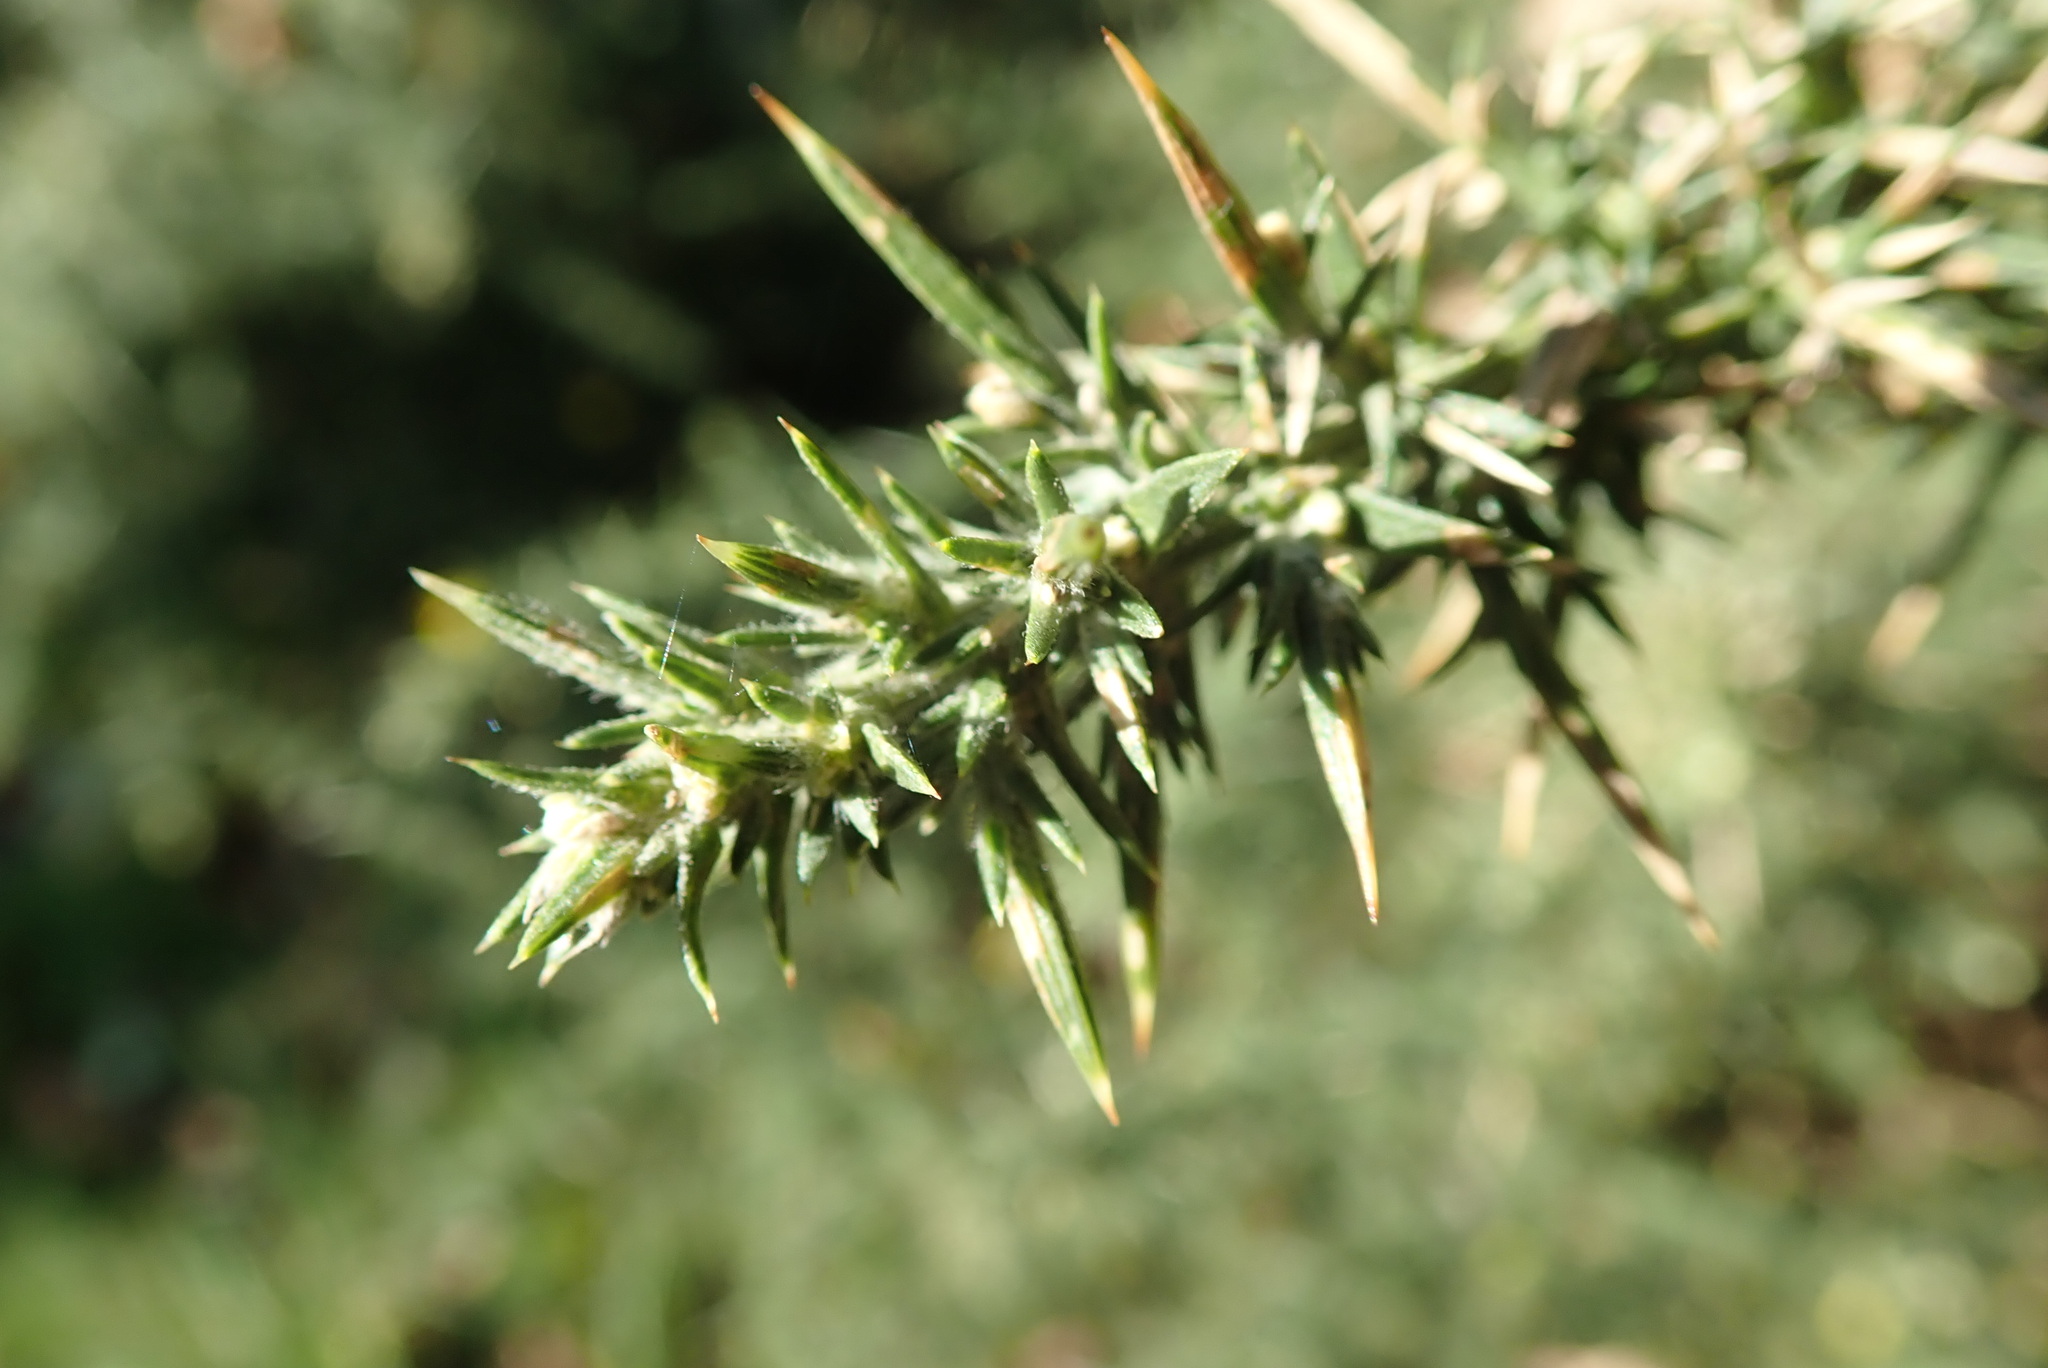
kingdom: Plantae
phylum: Tracheophyta
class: Magnoliopsida
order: Fabales
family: Fabaceae
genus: Ulex
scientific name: Ulex europaeus
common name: Common gorse
